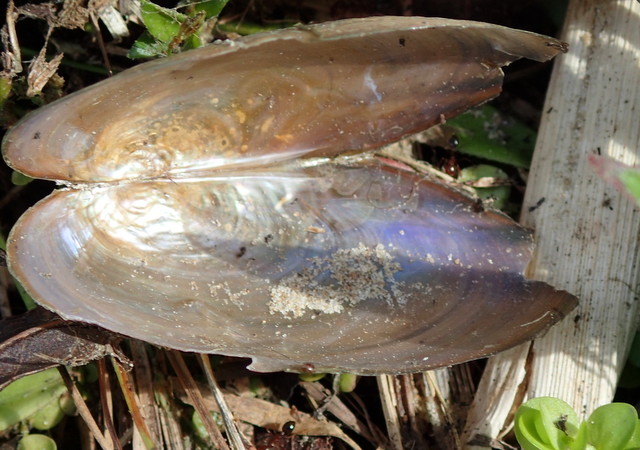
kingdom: Animalia
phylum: Mollusca
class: Bivalvia
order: Unionida
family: Unionidae
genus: Pyganodon
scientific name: Pyganodon grandis
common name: Giant floater
